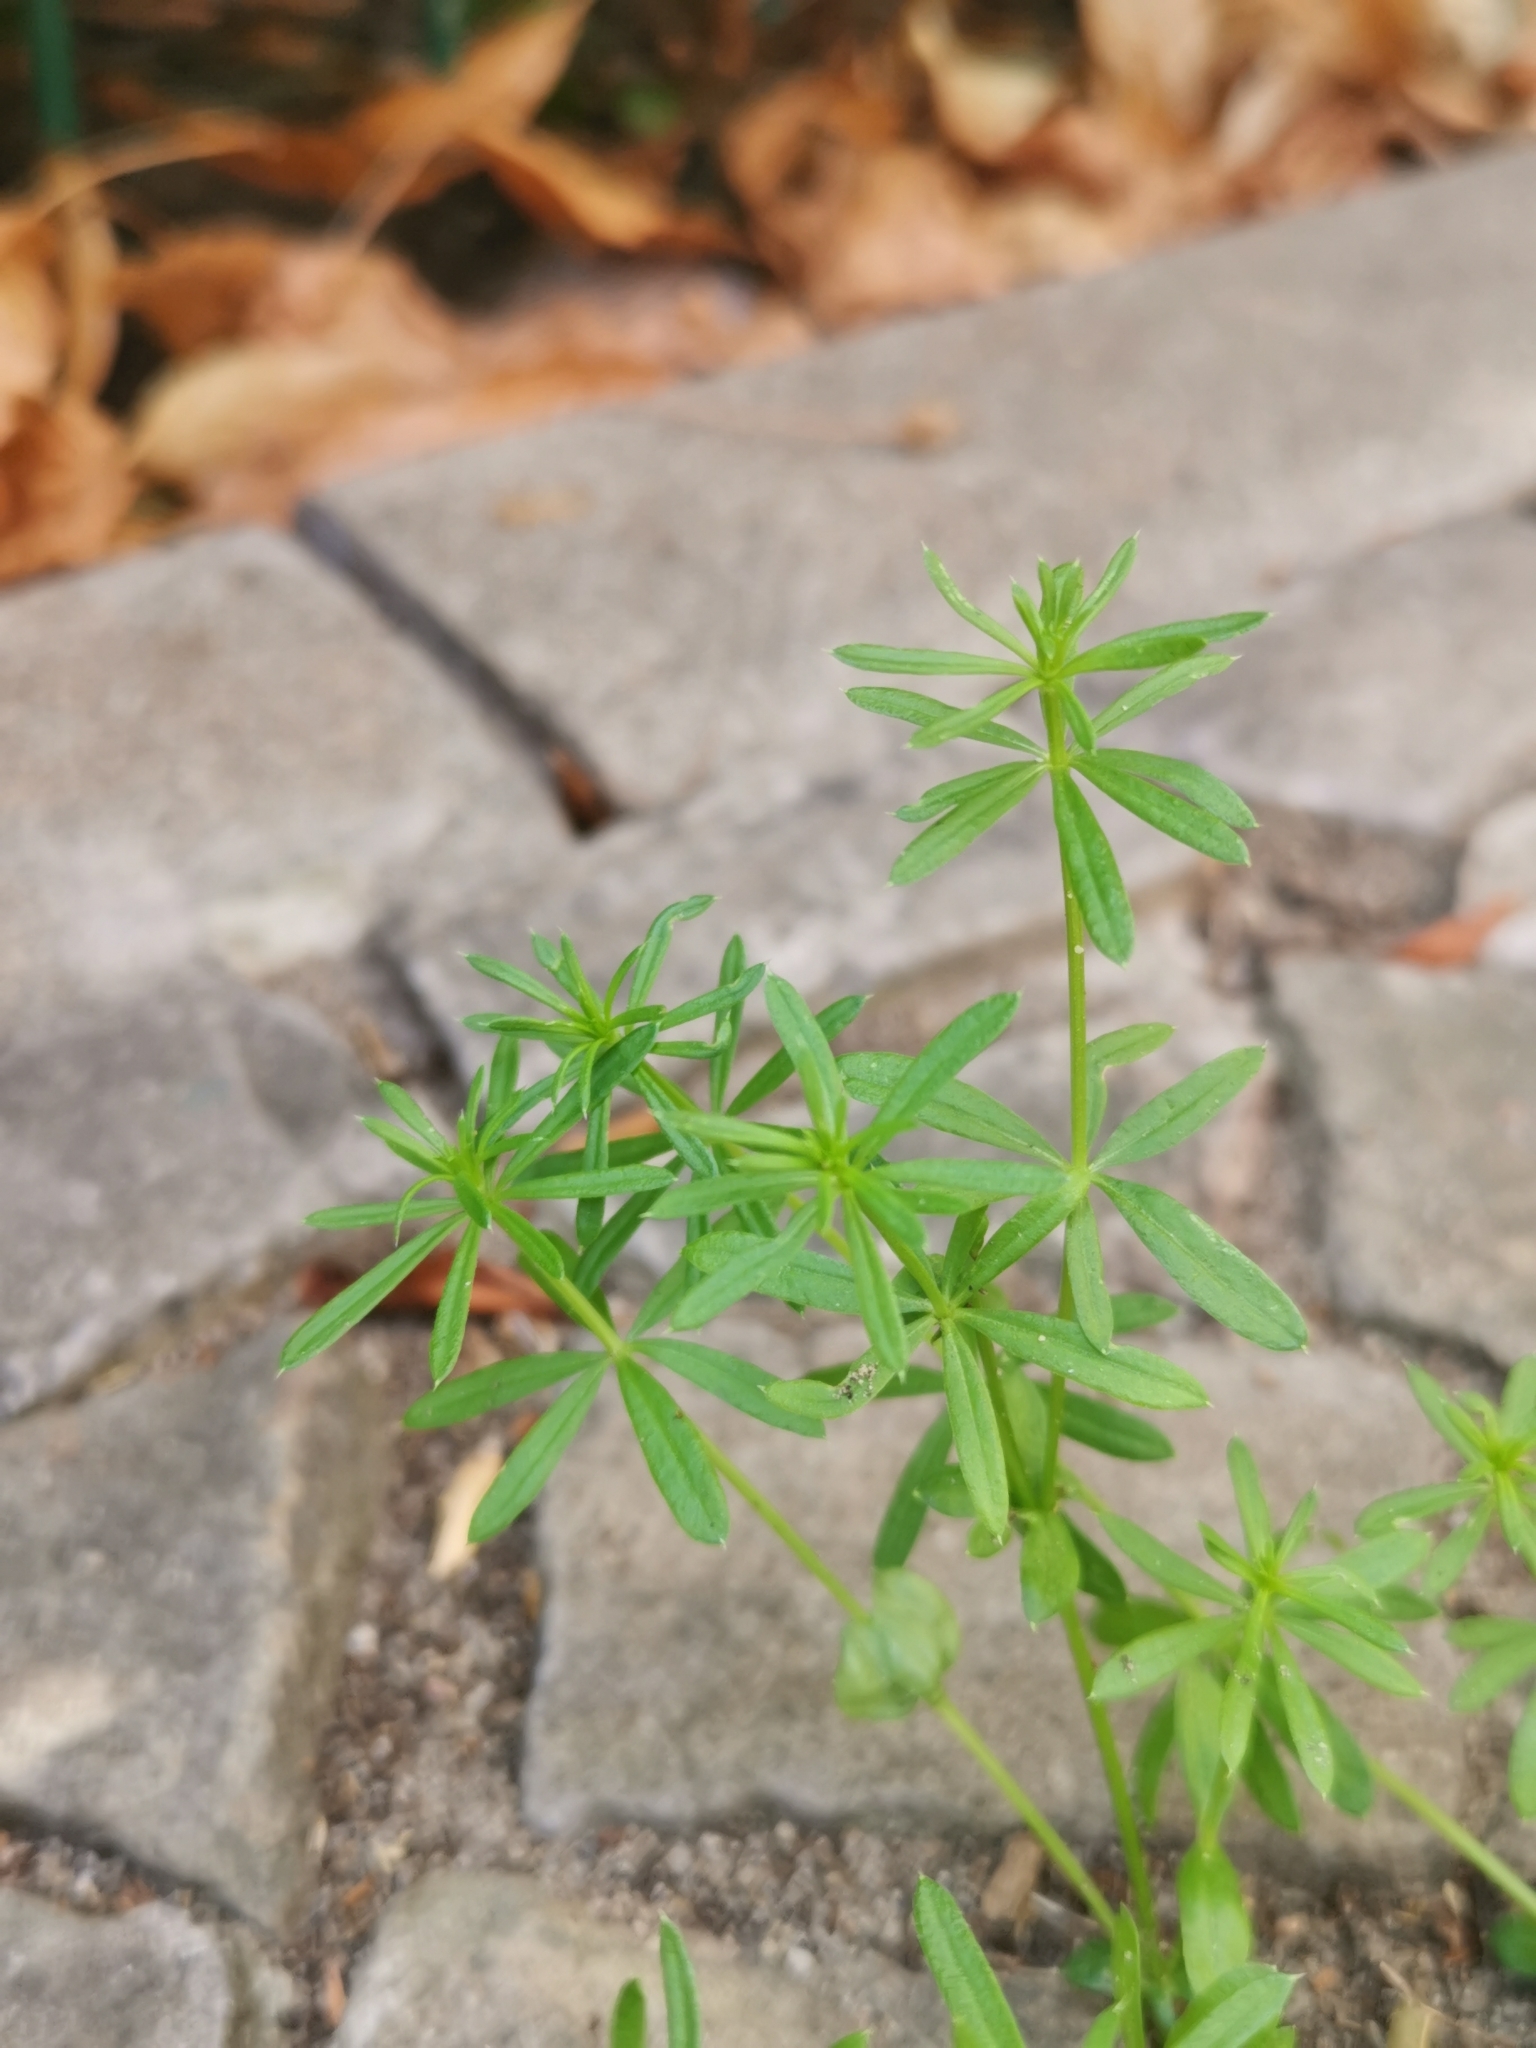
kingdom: Plantae
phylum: Tracheophyta
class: Magnoliopsida
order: Gentianales
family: Rubiaceae
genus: Galium
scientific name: Galium aparine
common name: Cleavers
